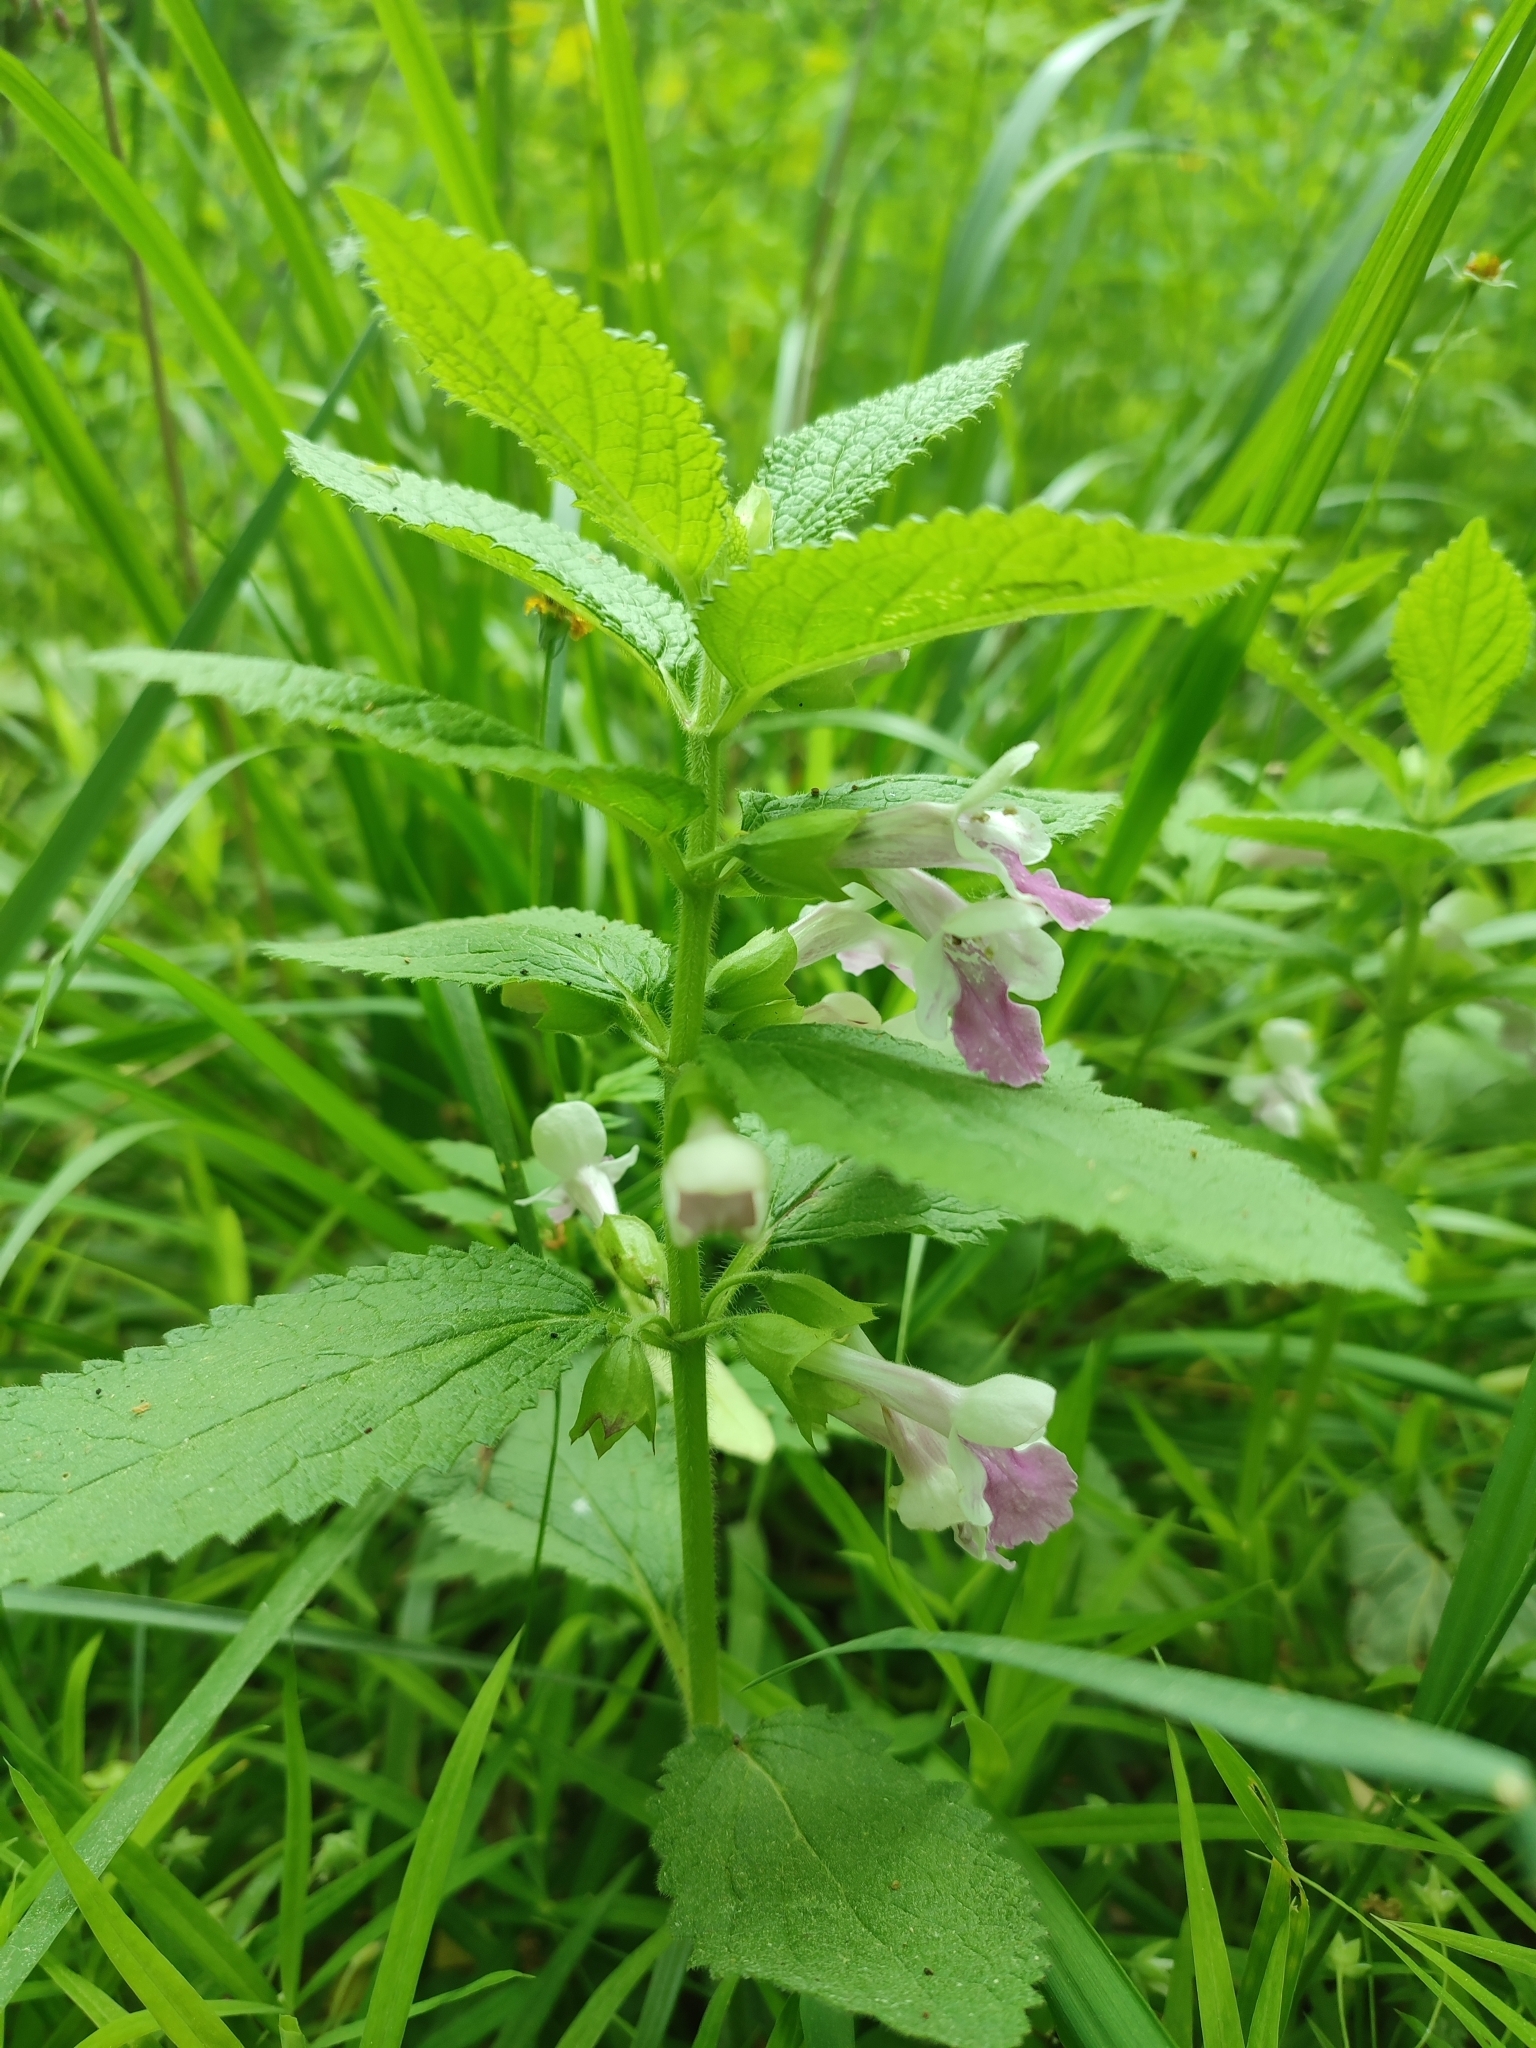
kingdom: Plantae
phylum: Tracheophyta
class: Magnoliopsida
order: Lamiales
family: Lamiaceae
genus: Melittis
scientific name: Melittis melissophyllum
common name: Bastard balm
